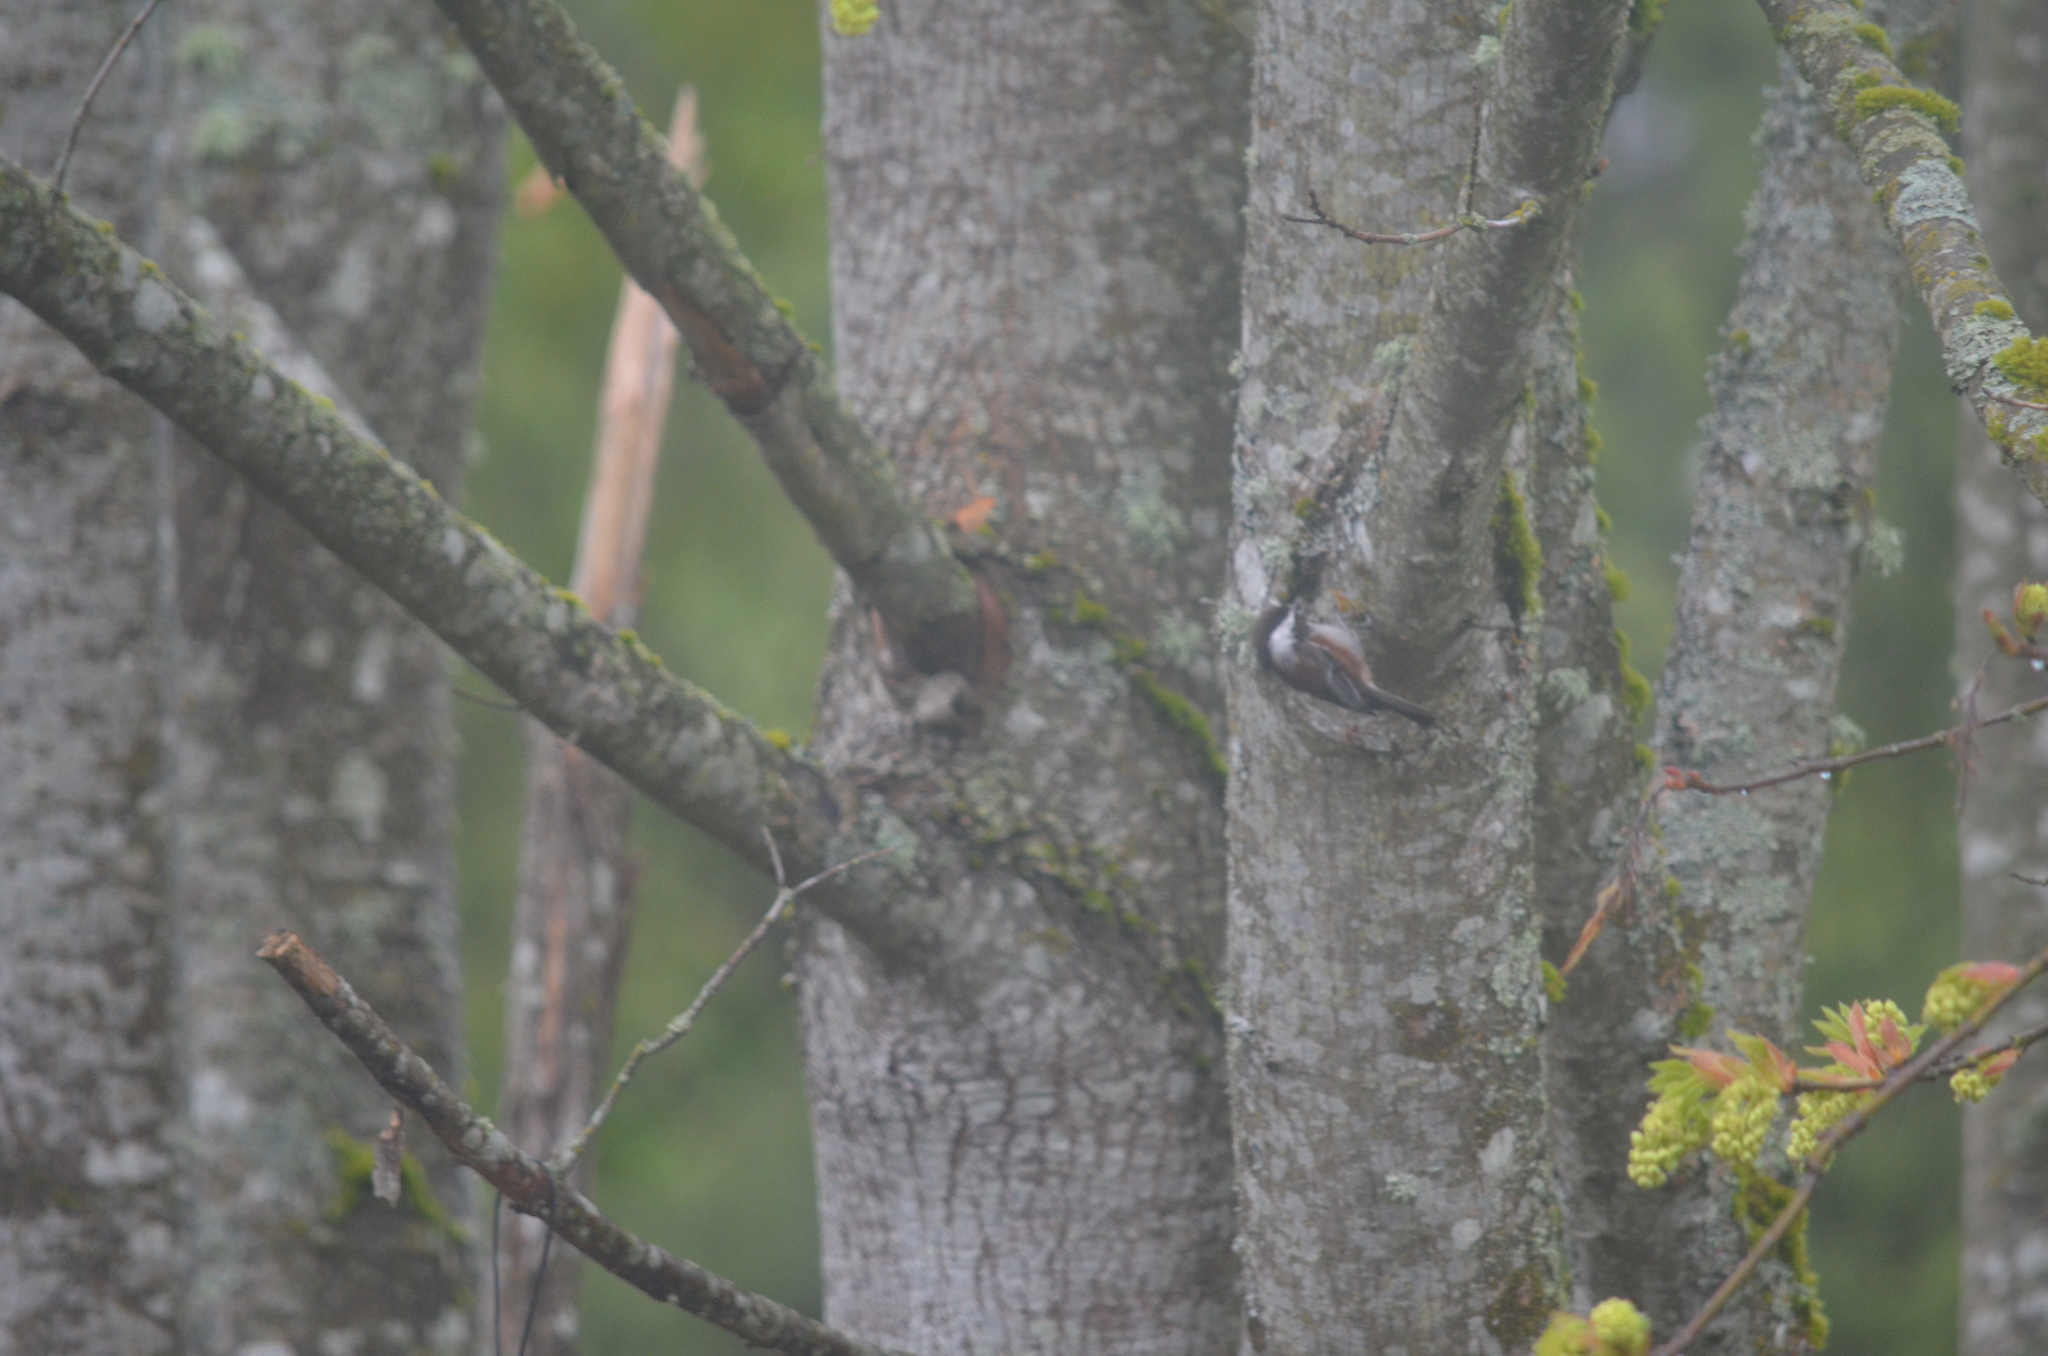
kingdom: Animalia
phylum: Chordata
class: Aves
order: Passeriformes
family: Paridae
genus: Poecile
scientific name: Poecile rufescens
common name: Chestnut-backed chickadee
